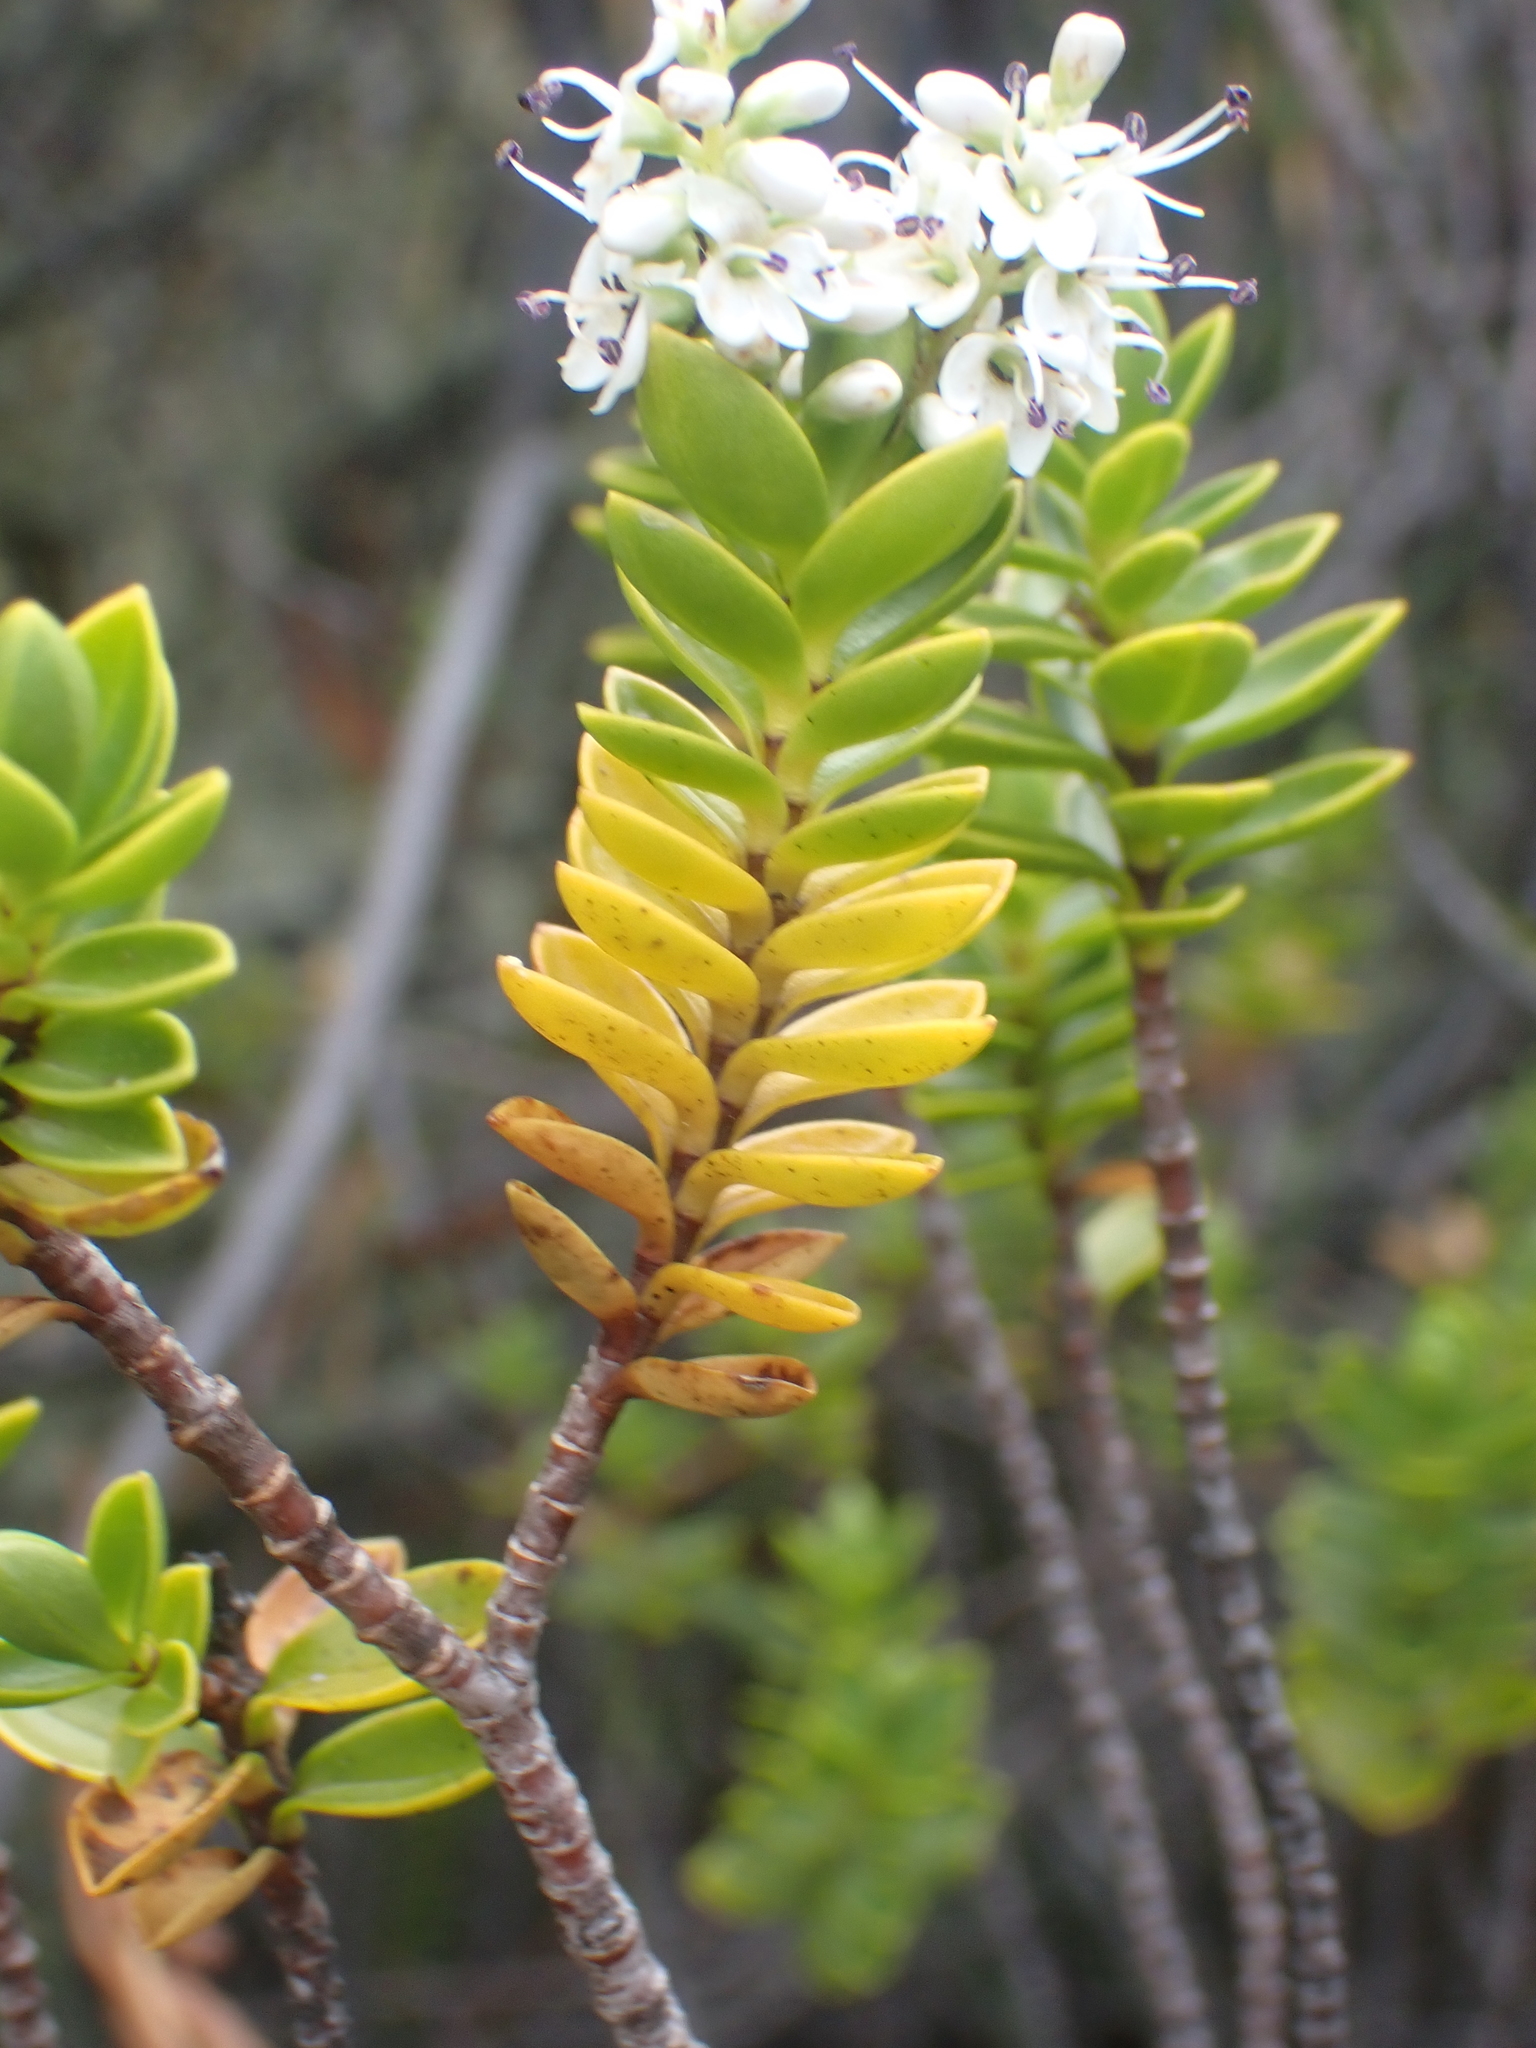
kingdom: Plantae
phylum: Tracheophyta
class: Magnoliopsida
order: Lamiales
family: Plantaginaceae
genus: Veronica
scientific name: Veronica subalpina
